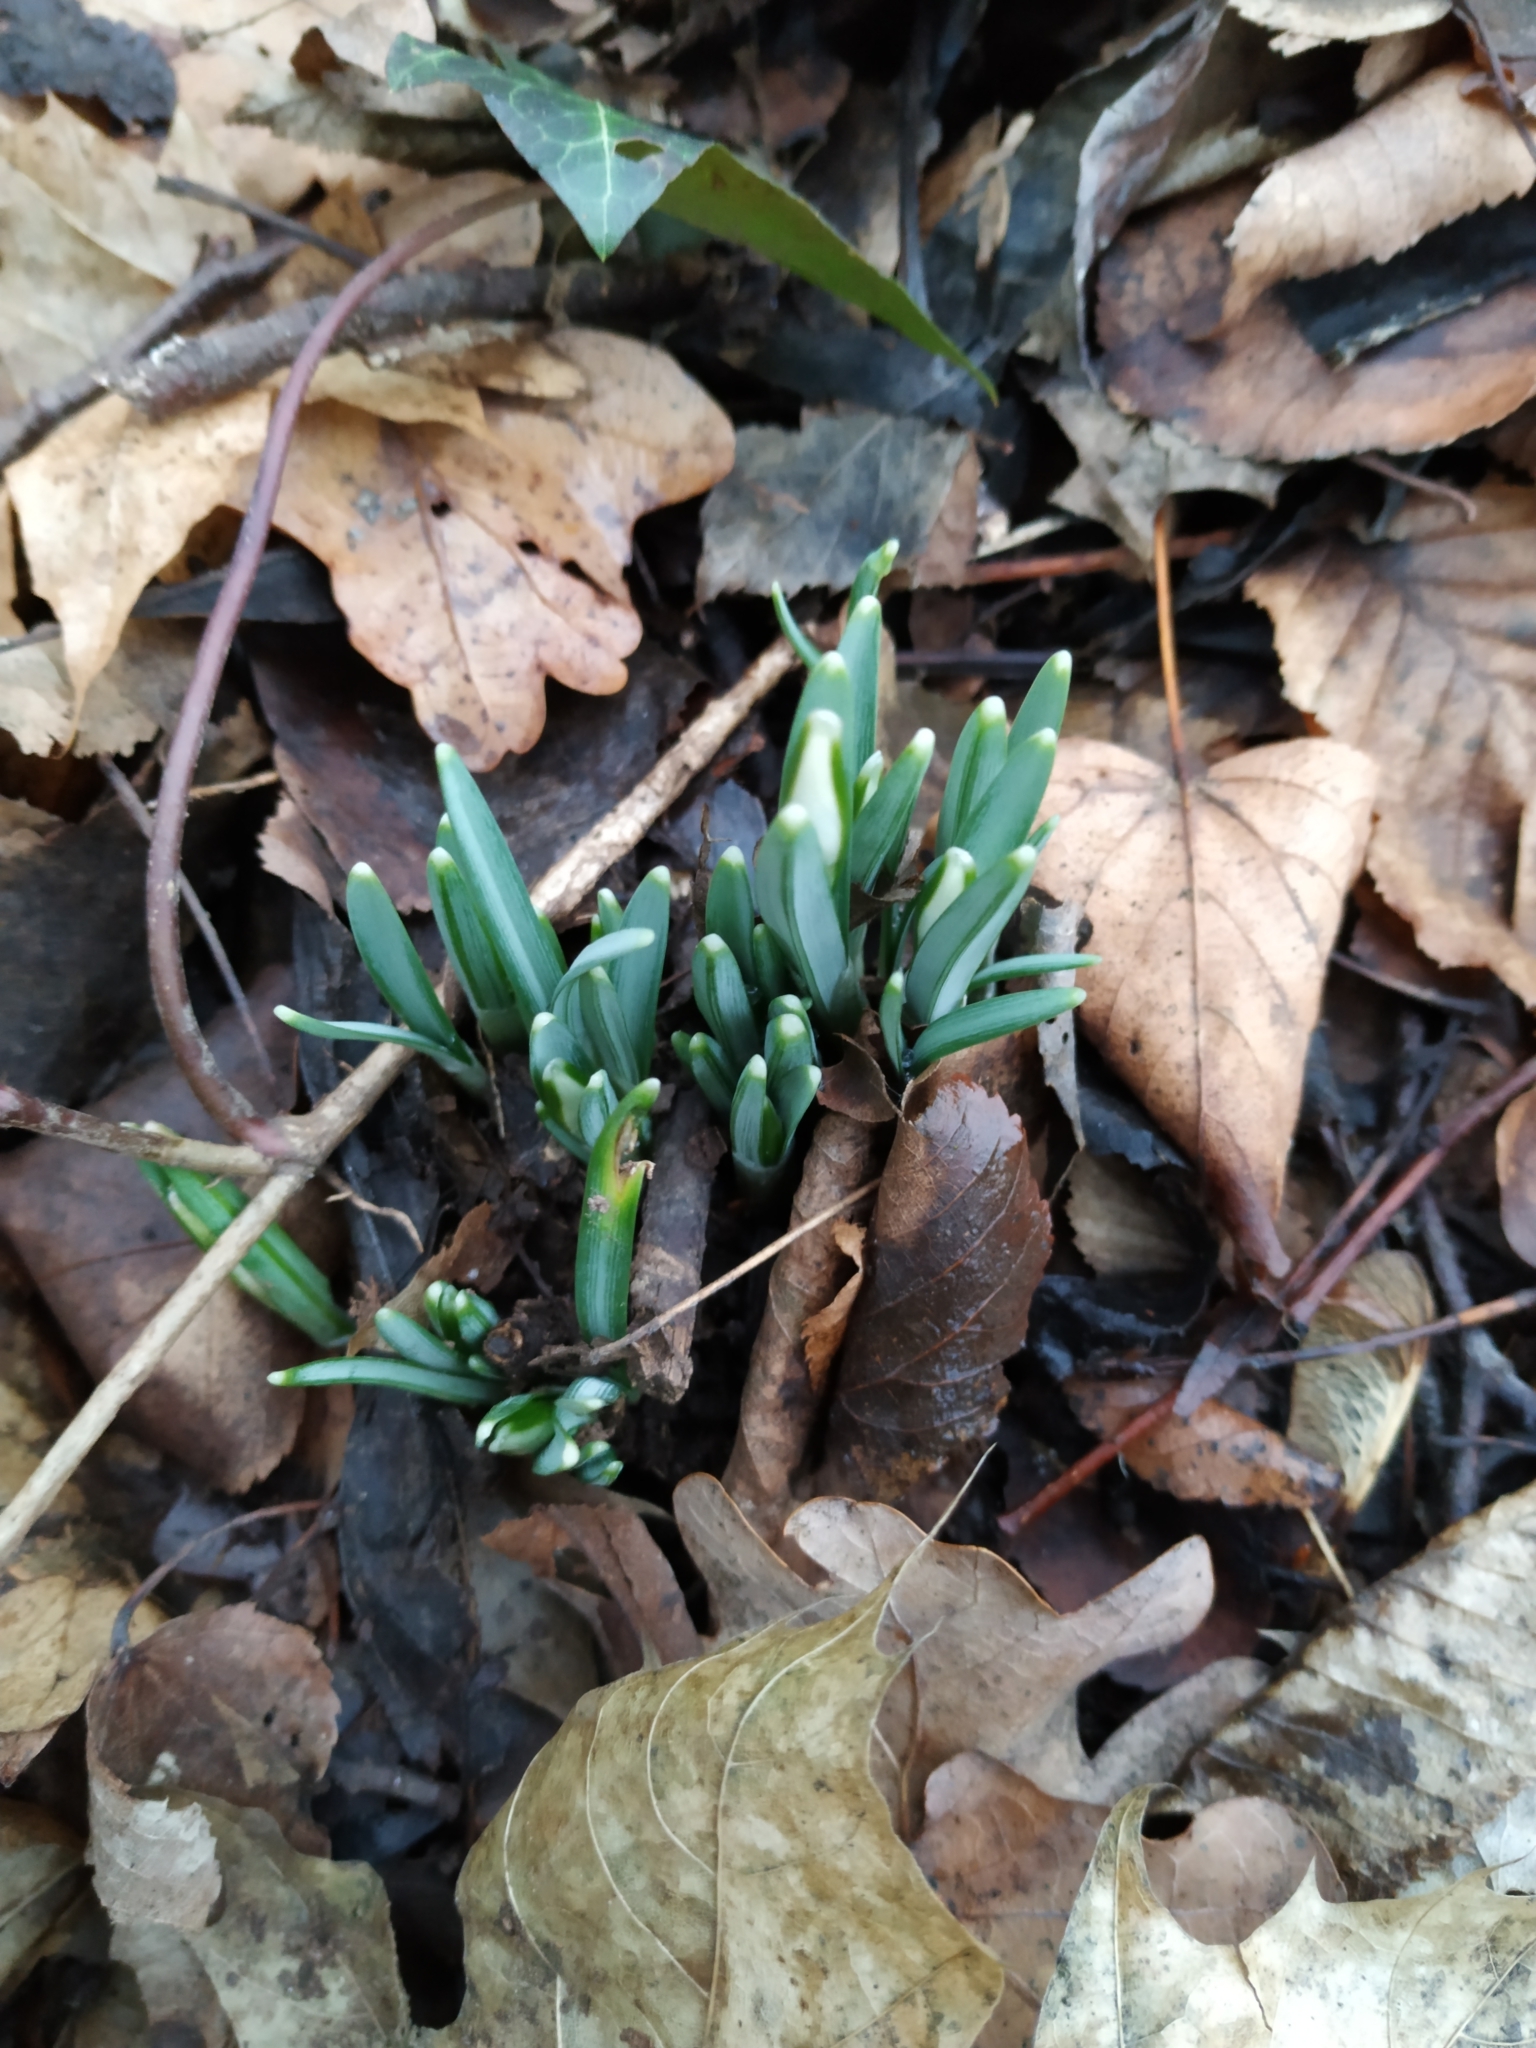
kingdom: Plantae
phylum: Tracheophyta
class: Liliopsida
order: Asparagales
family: Amaryllidaceae
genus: Galanthus
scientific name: Galanthus nivalis
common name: Snowdrop
